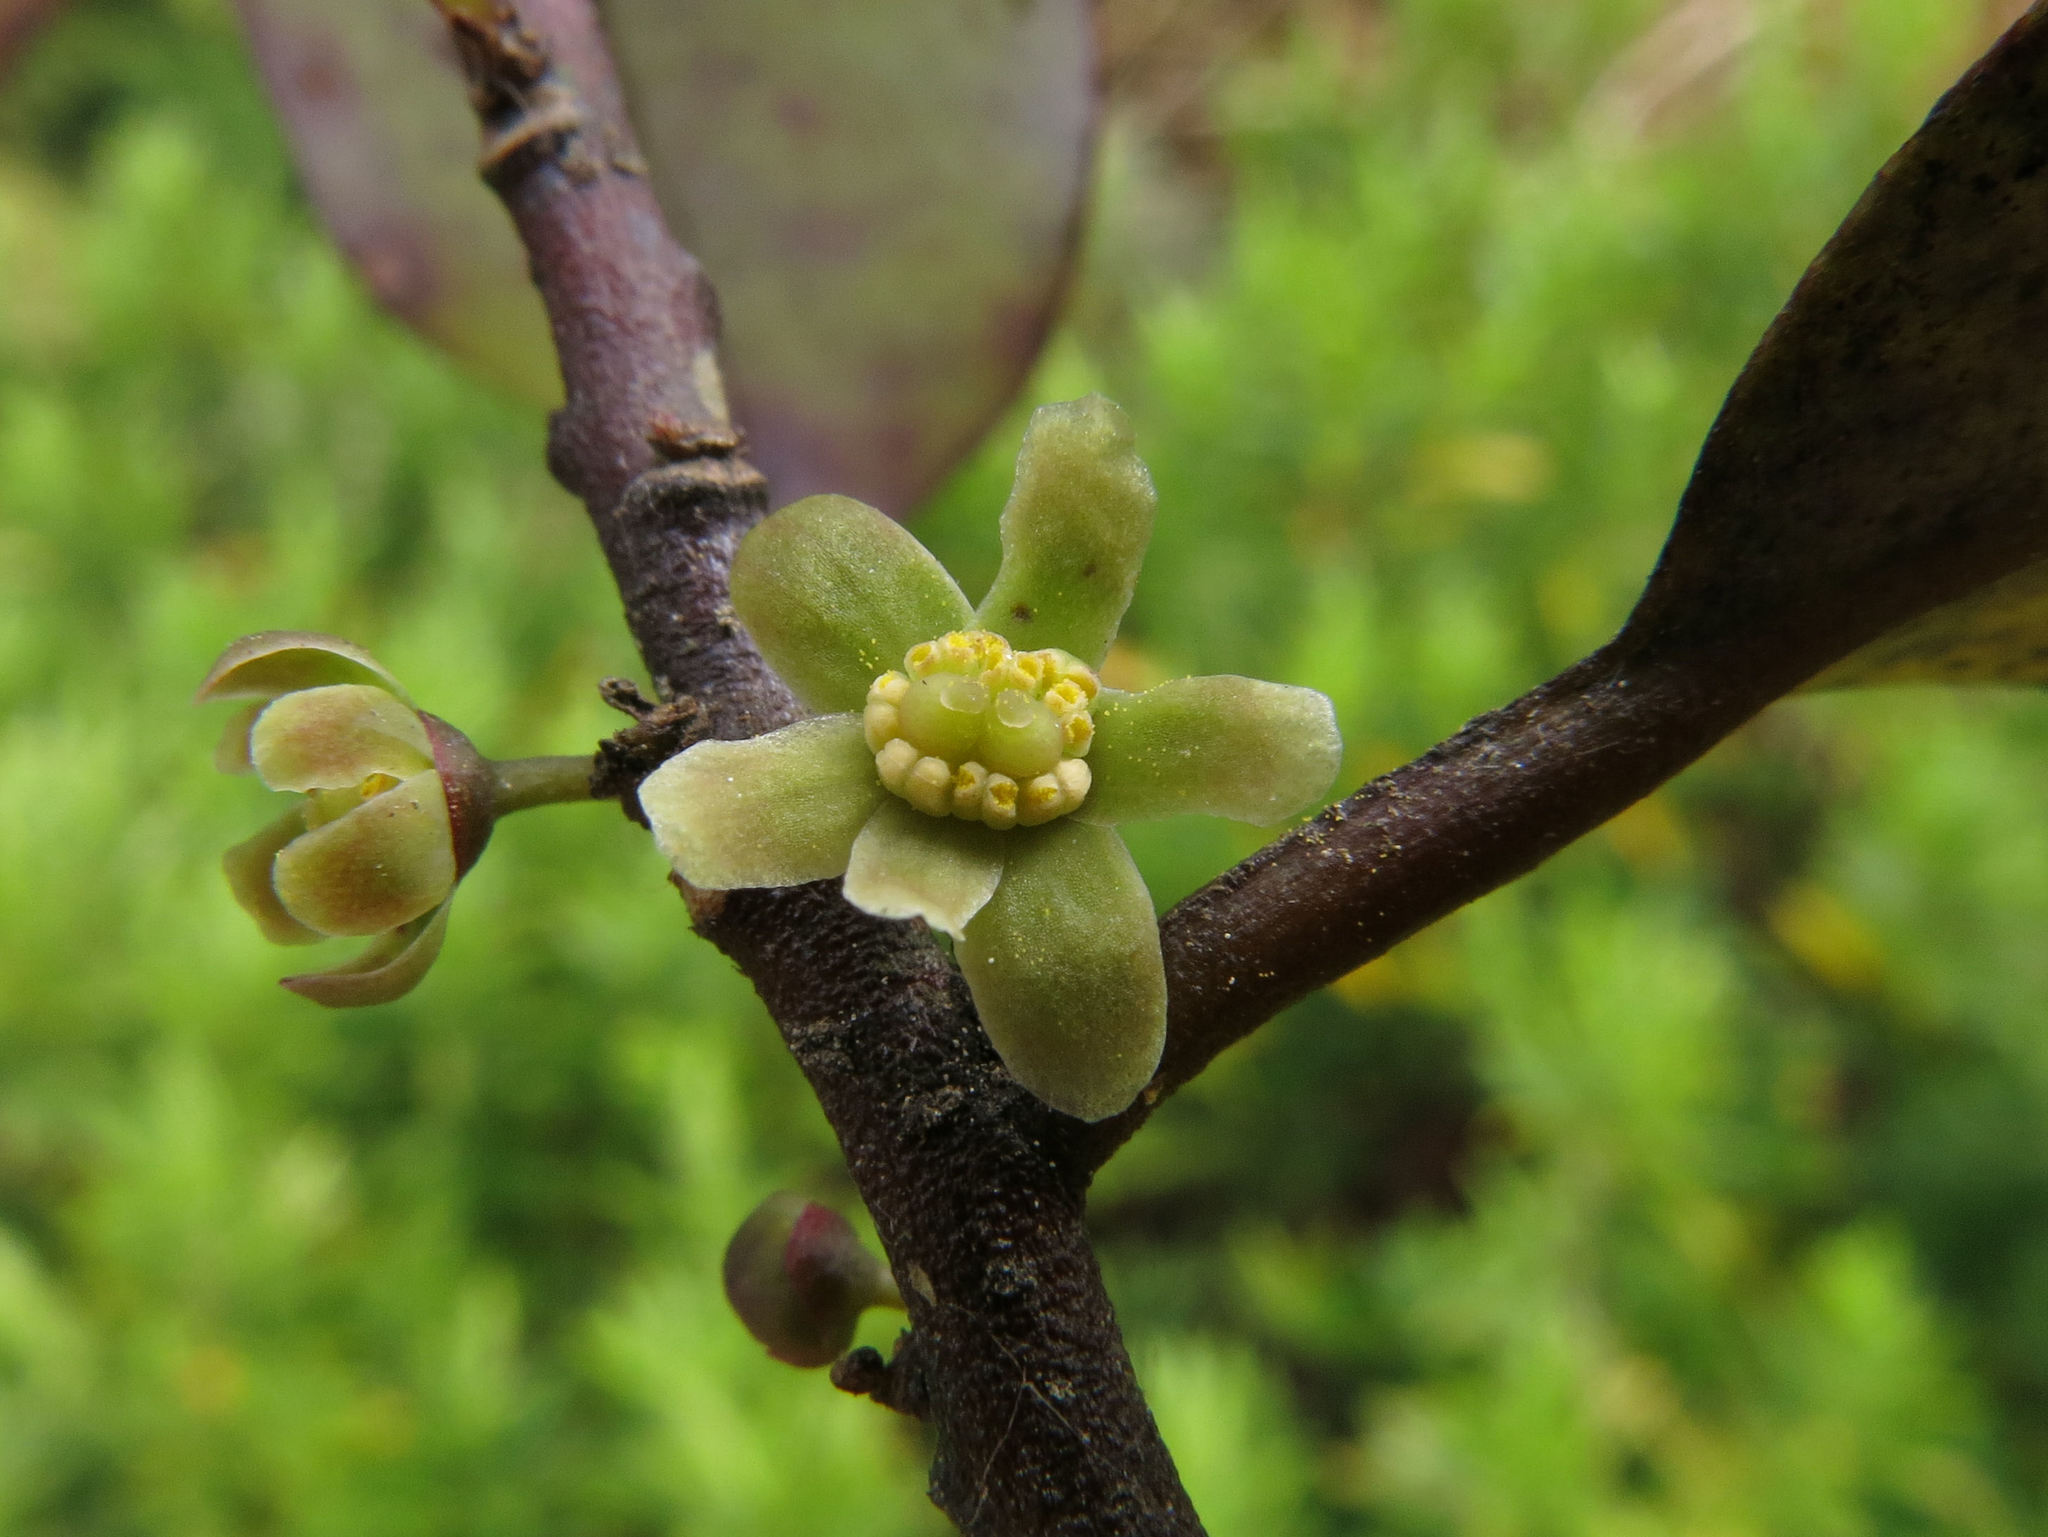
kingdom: Plantae
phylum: Tracheophyta
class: Magnoliopsida
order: Canellales
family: Winteraceae
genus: Pseudowintera
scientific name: Pseudowintera colorata
